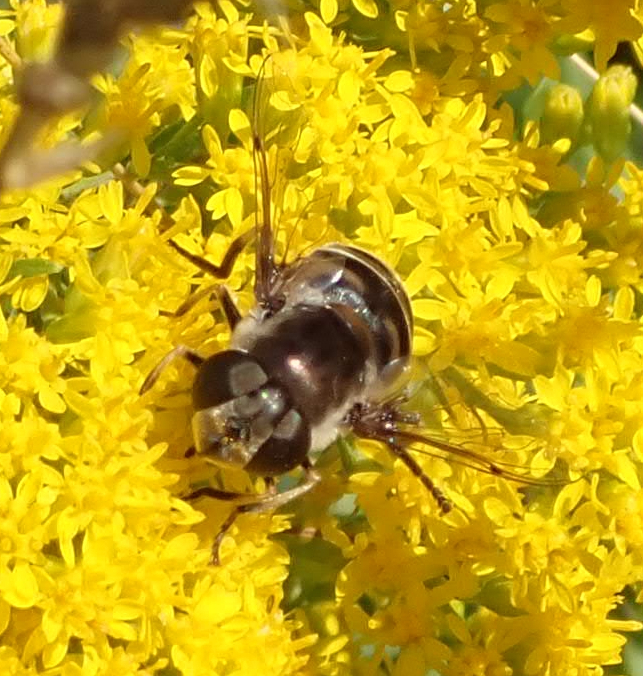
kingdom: Animalia
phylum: Arthropoda
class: Insecta
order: Diptera
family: Syrphidae
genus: Eristalis
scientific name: Eristalis dimidiata
